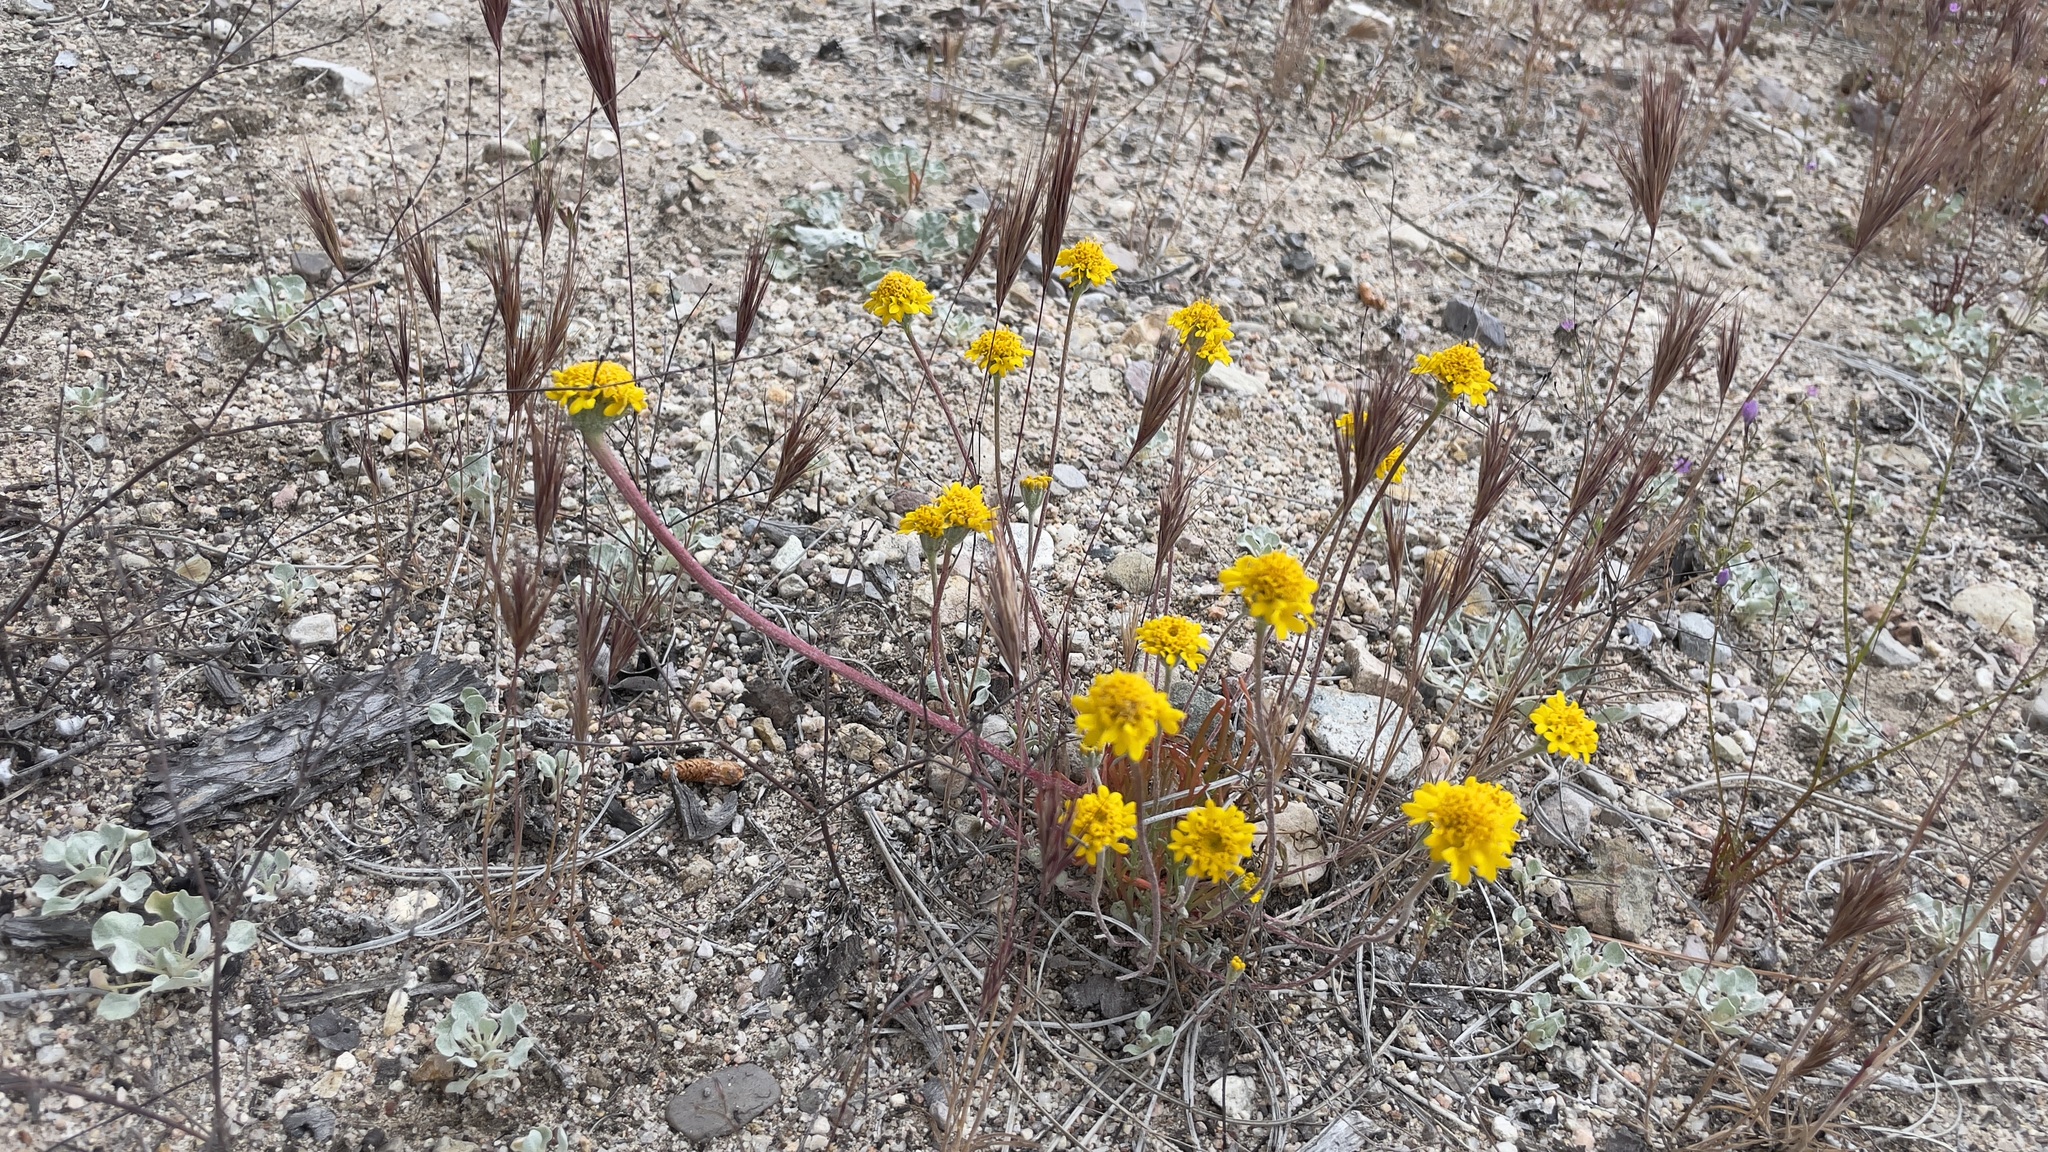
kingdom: Plantae
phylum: Tracheophyta
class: Magnoliopsida
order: Asterales
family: Asteraceae
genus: Chaenactis
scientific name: Chaenactis glabriuscula
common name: Yellow pincushion
